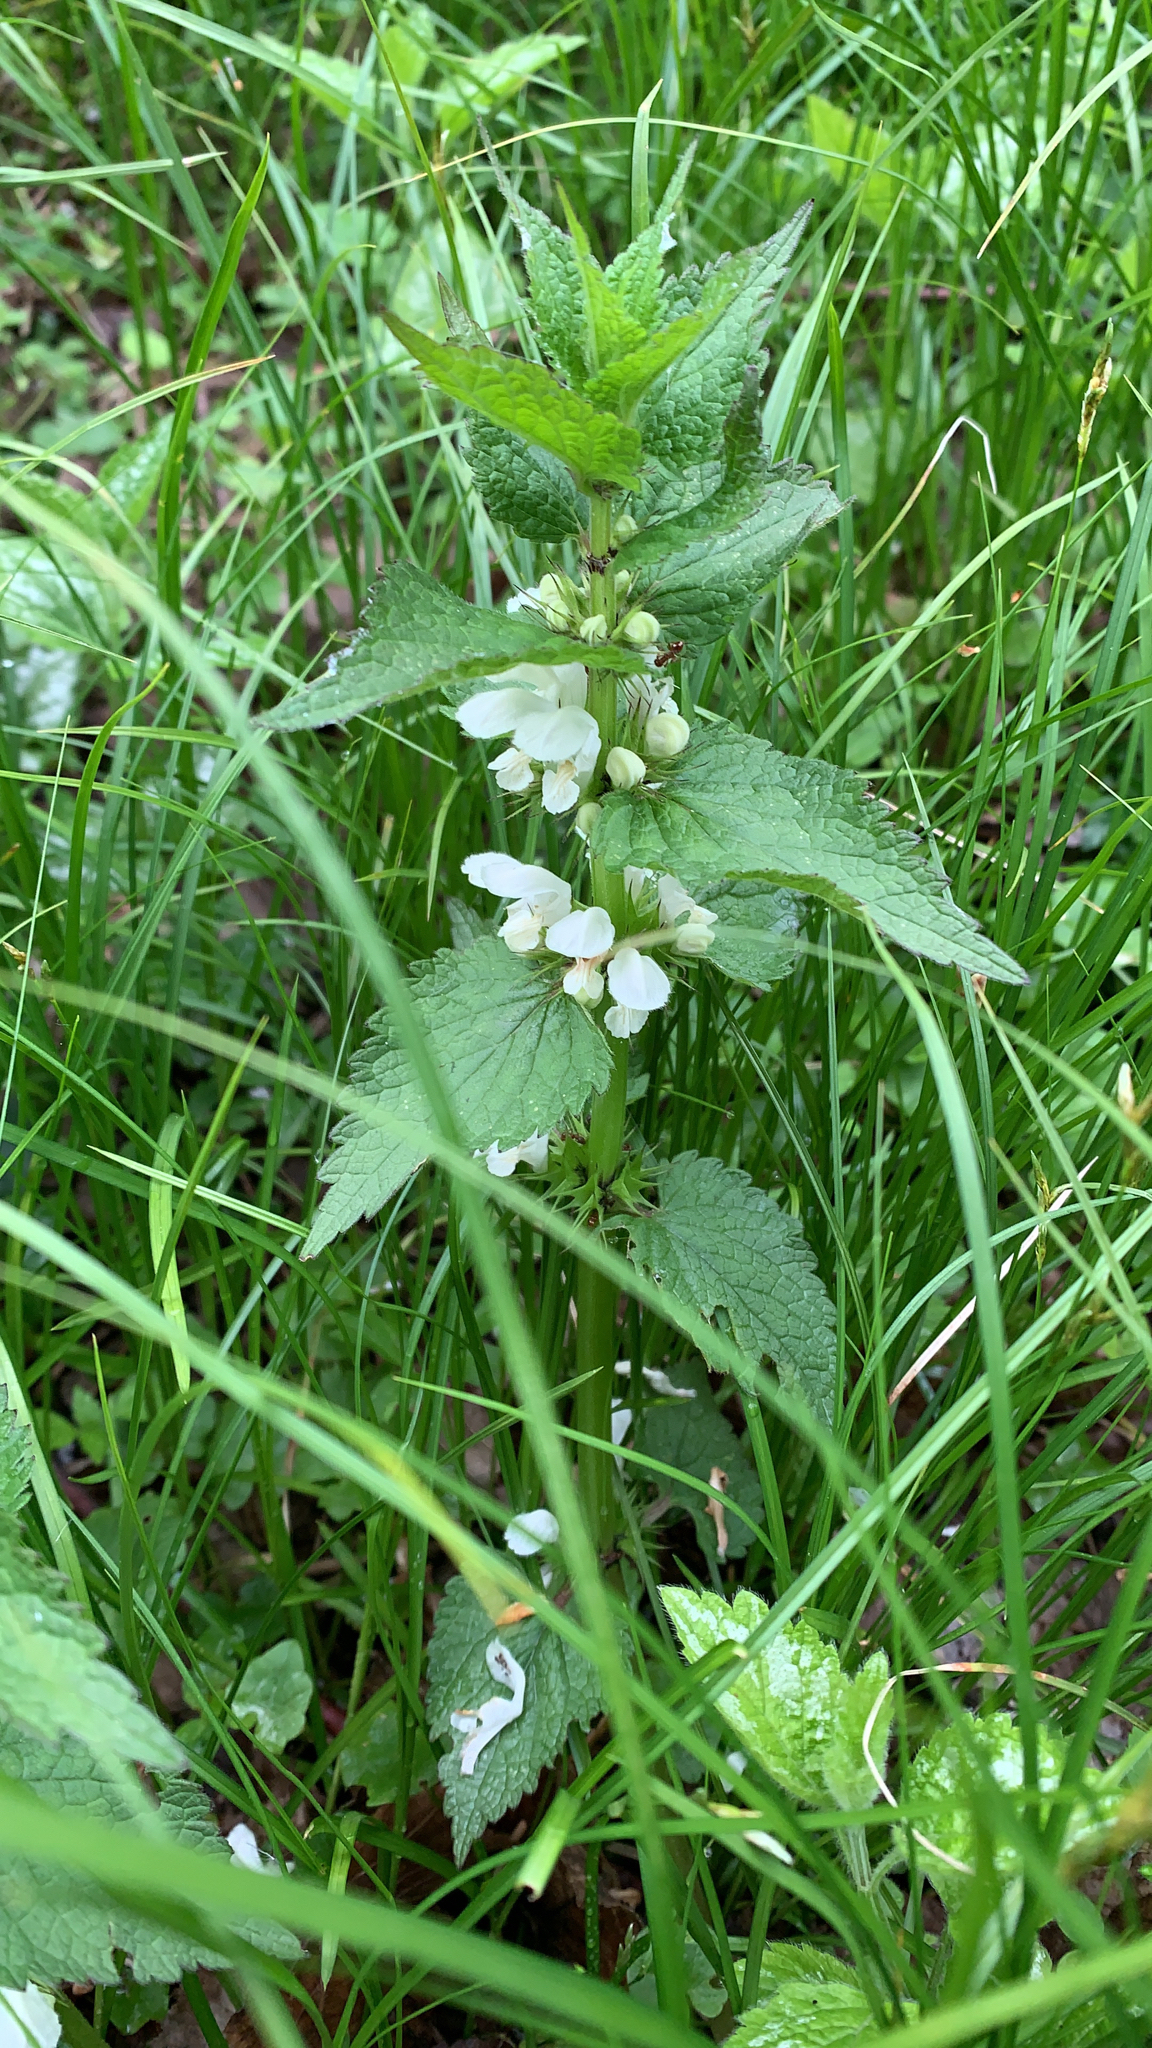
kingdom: Plantae
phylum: Tracheophyta
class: Magnoliopsida
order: Lamiales
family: Lamiaceae
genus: Lamium
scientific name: Lamium album
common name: White dead-nettle
